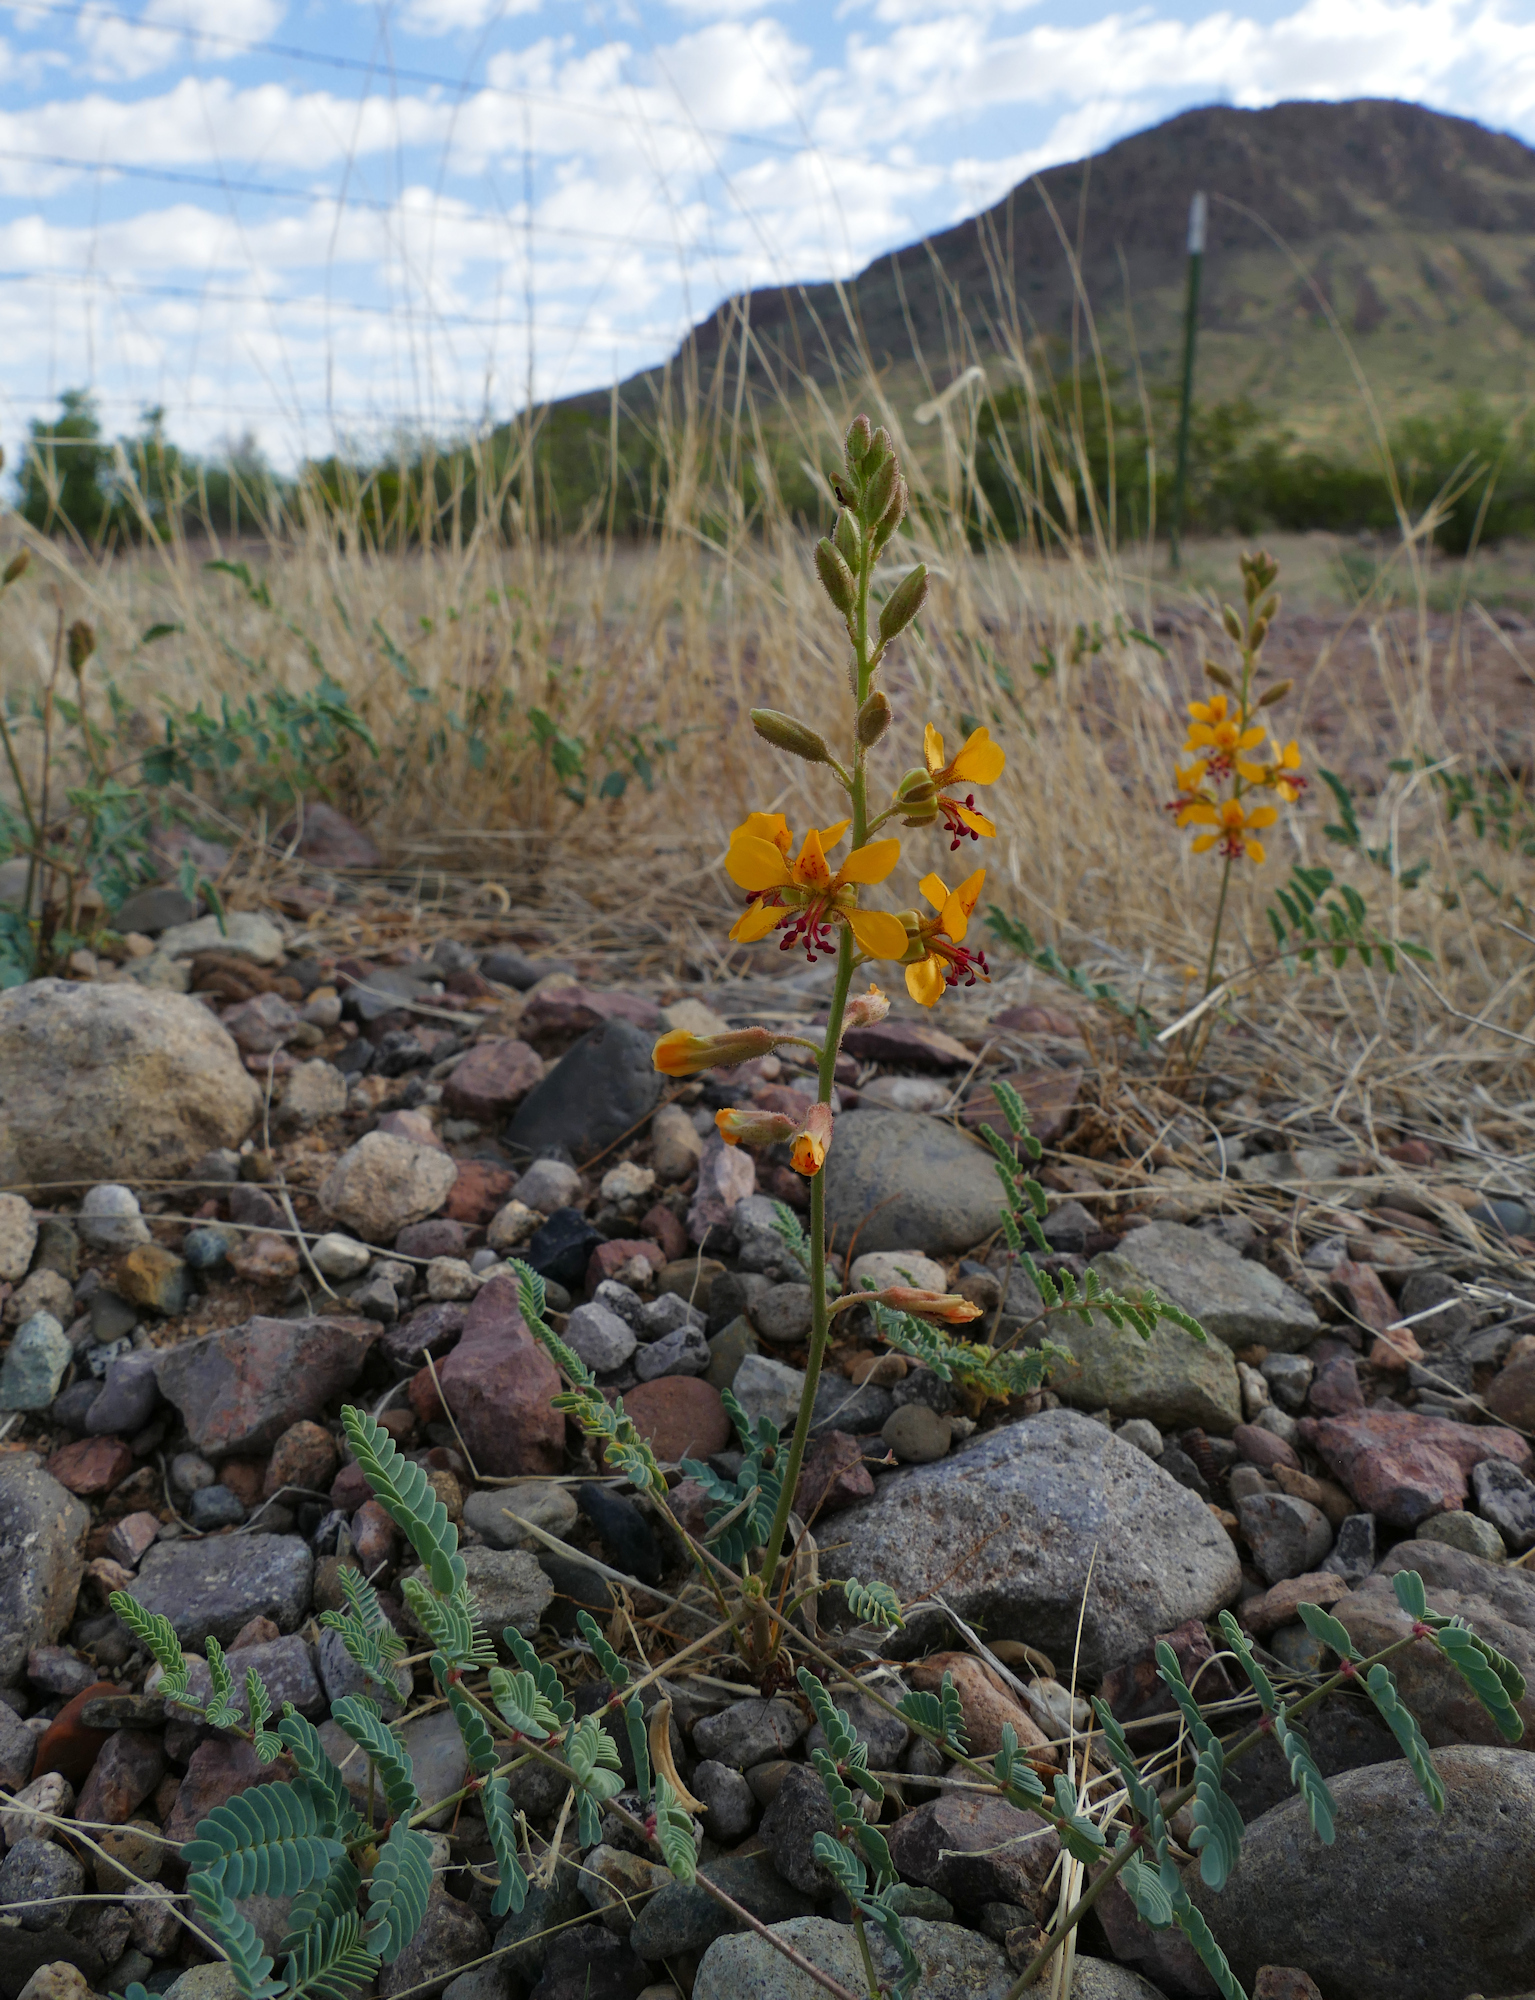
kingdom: Plantae
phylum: Tracheophyta
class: Magnoliopsida
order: Fabales
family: Fabaceae
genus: Hoffmannseggia
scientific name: Hoffmannseggia glauca
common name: Pignut
